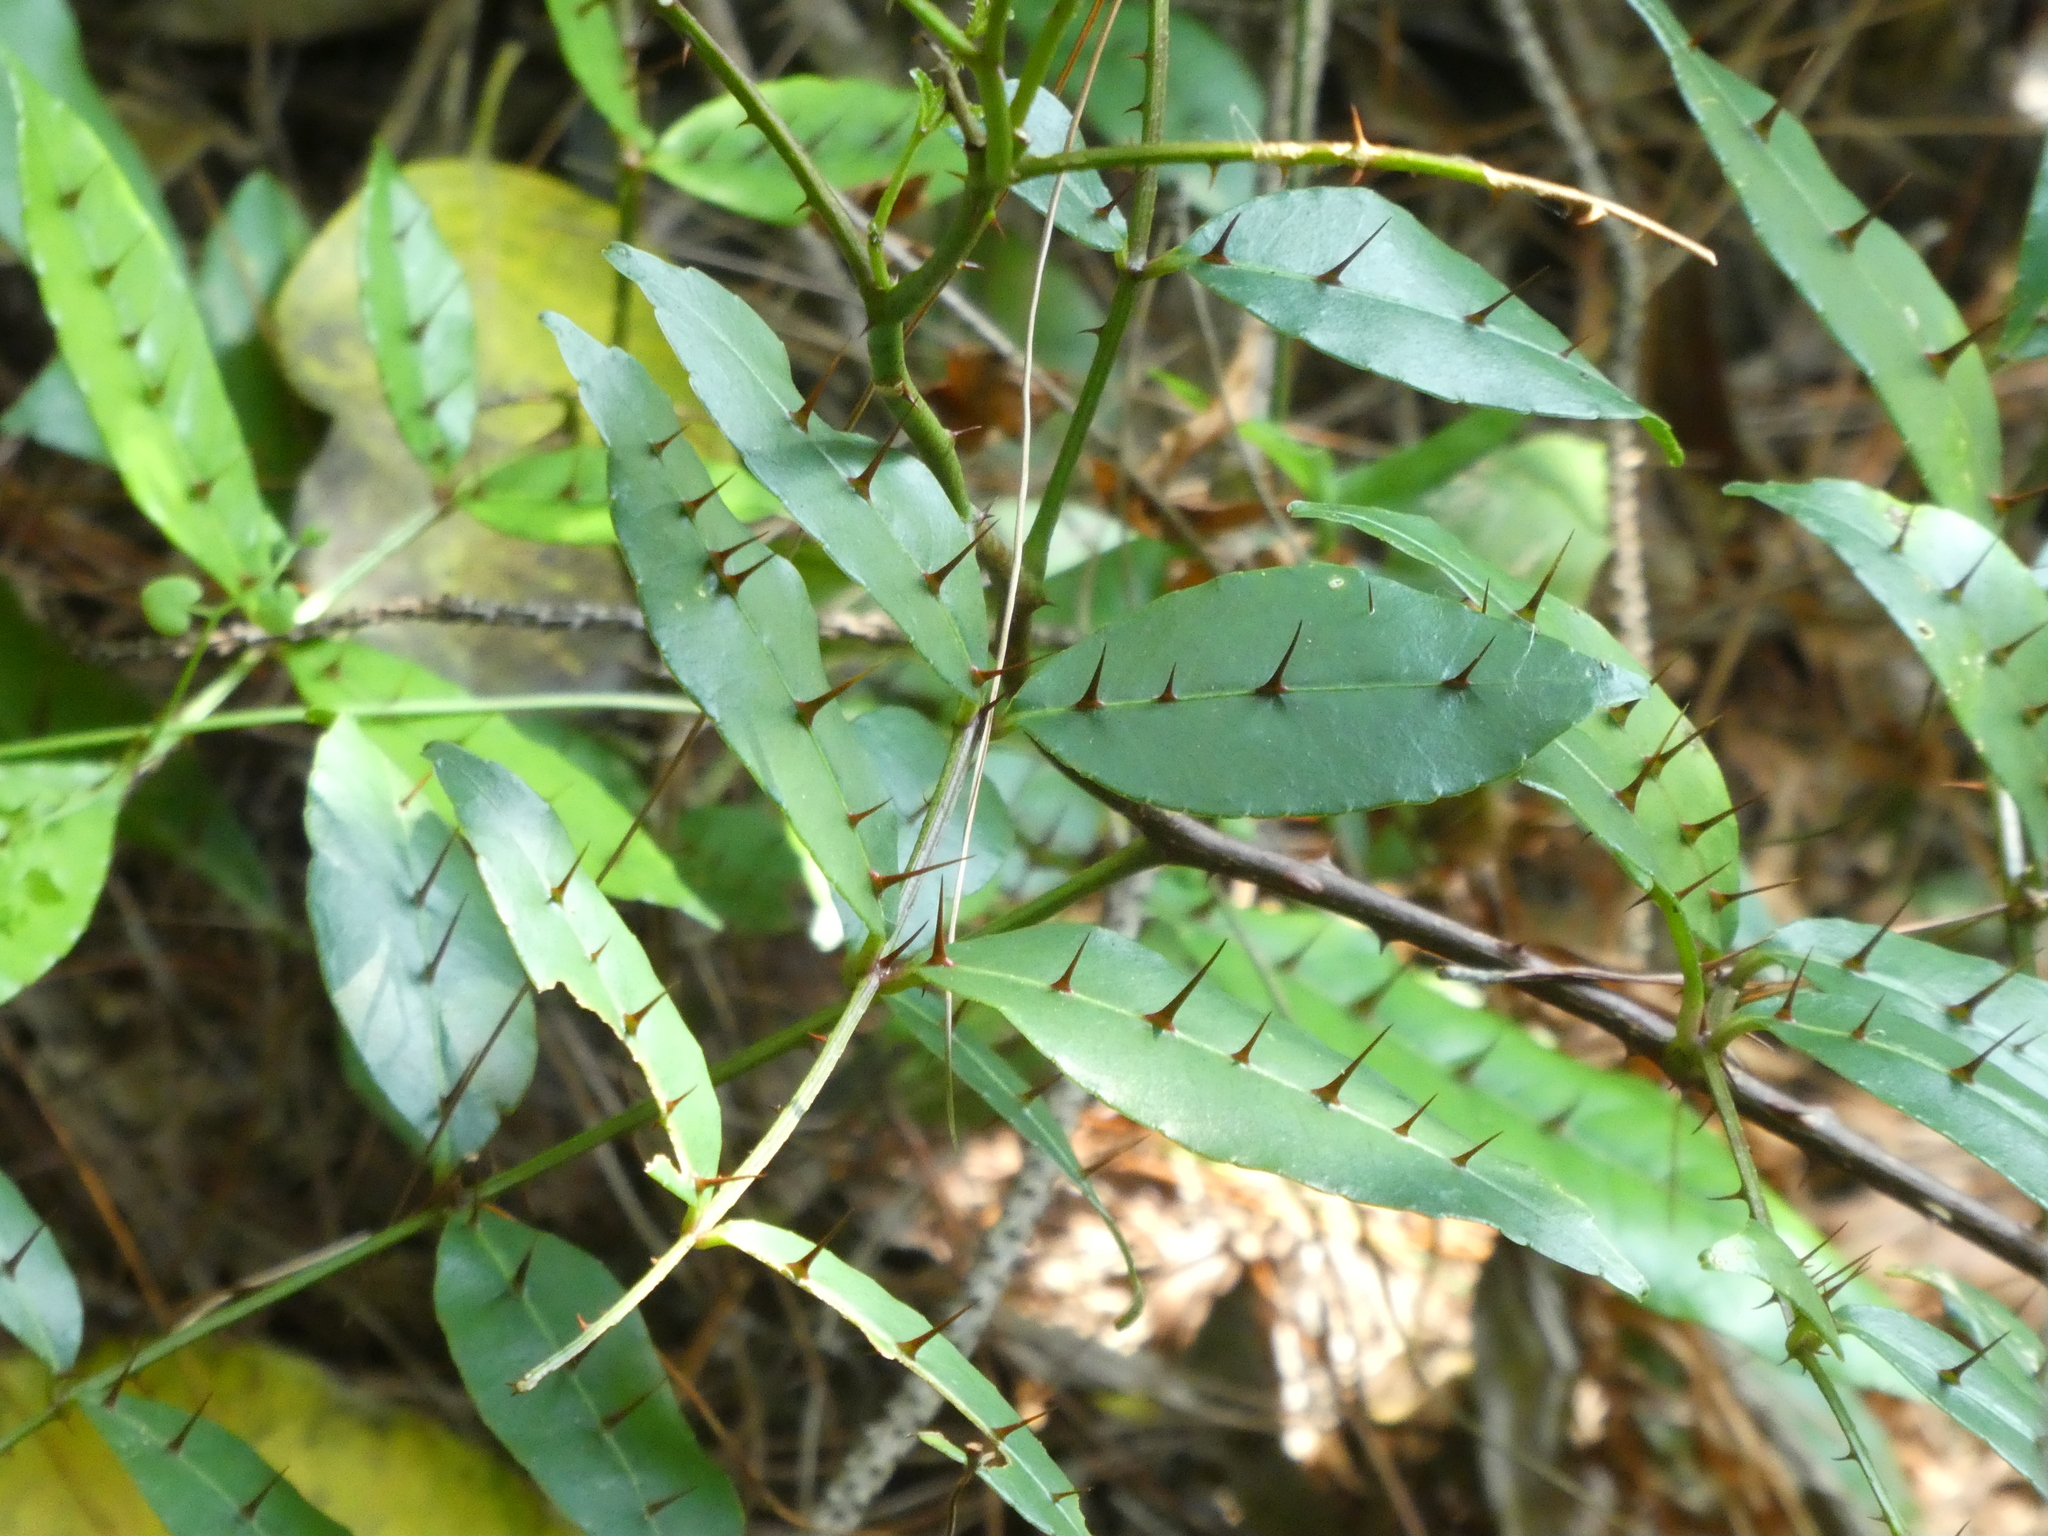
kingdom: Plantae
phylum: Tracheophyta
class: Magnoliopsida
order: Sapindales
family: Rutaceae
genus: Zanthoxylum
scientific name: Zanthoxylum nitidum
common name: Shiny-leaf prickly-ash
